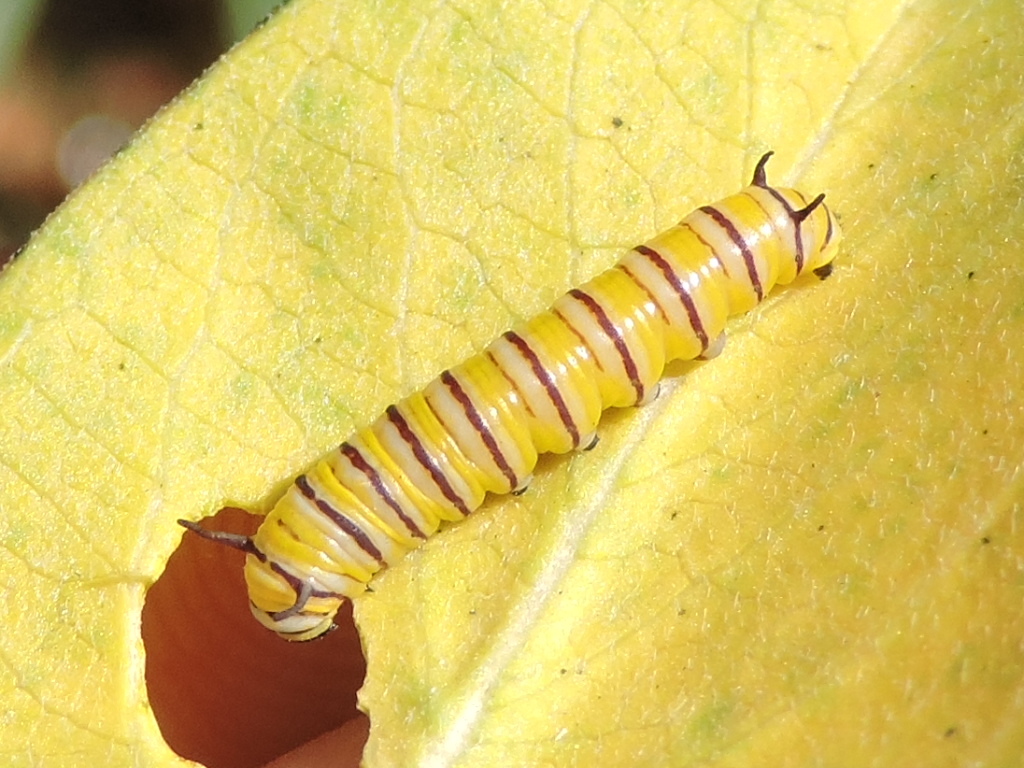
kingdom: Animalia
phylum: Arthropoda
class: Insecta
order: Lepidoptera
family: Nymphalidae
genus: Danaus
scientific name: Danaus plexippus
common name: Monarch
